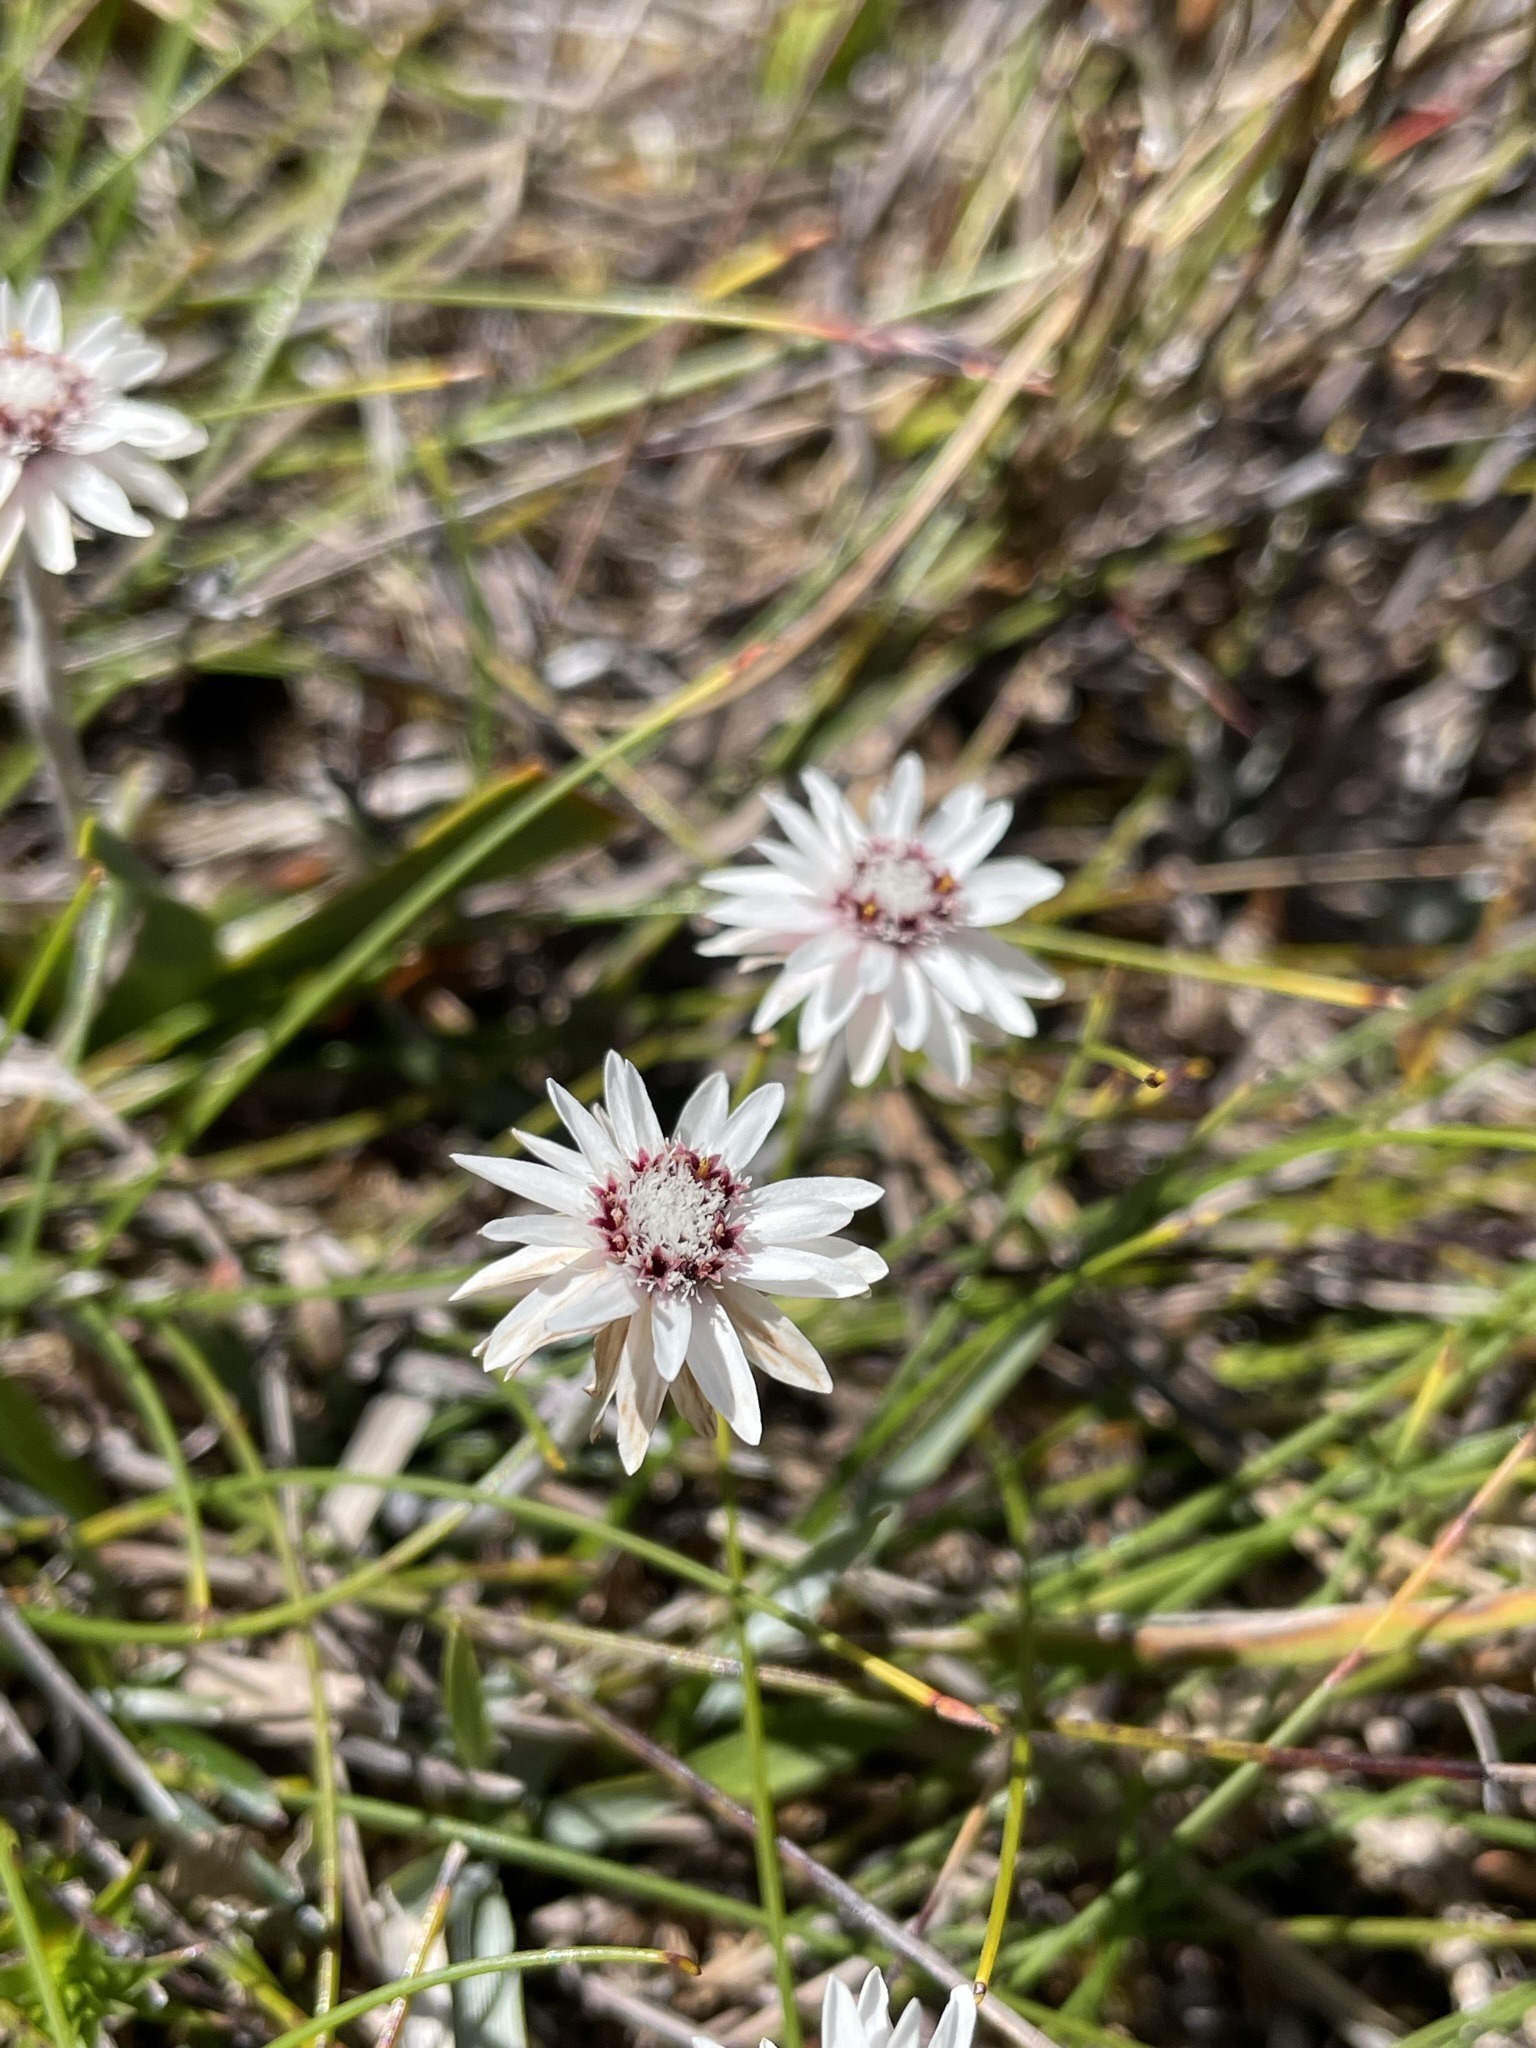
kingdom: Plantae
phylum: Tracheophyta
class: Magnoliopsida
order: Asterales
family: Asteraceae
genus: Helichrysum
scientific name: Helichrysum pumilum
